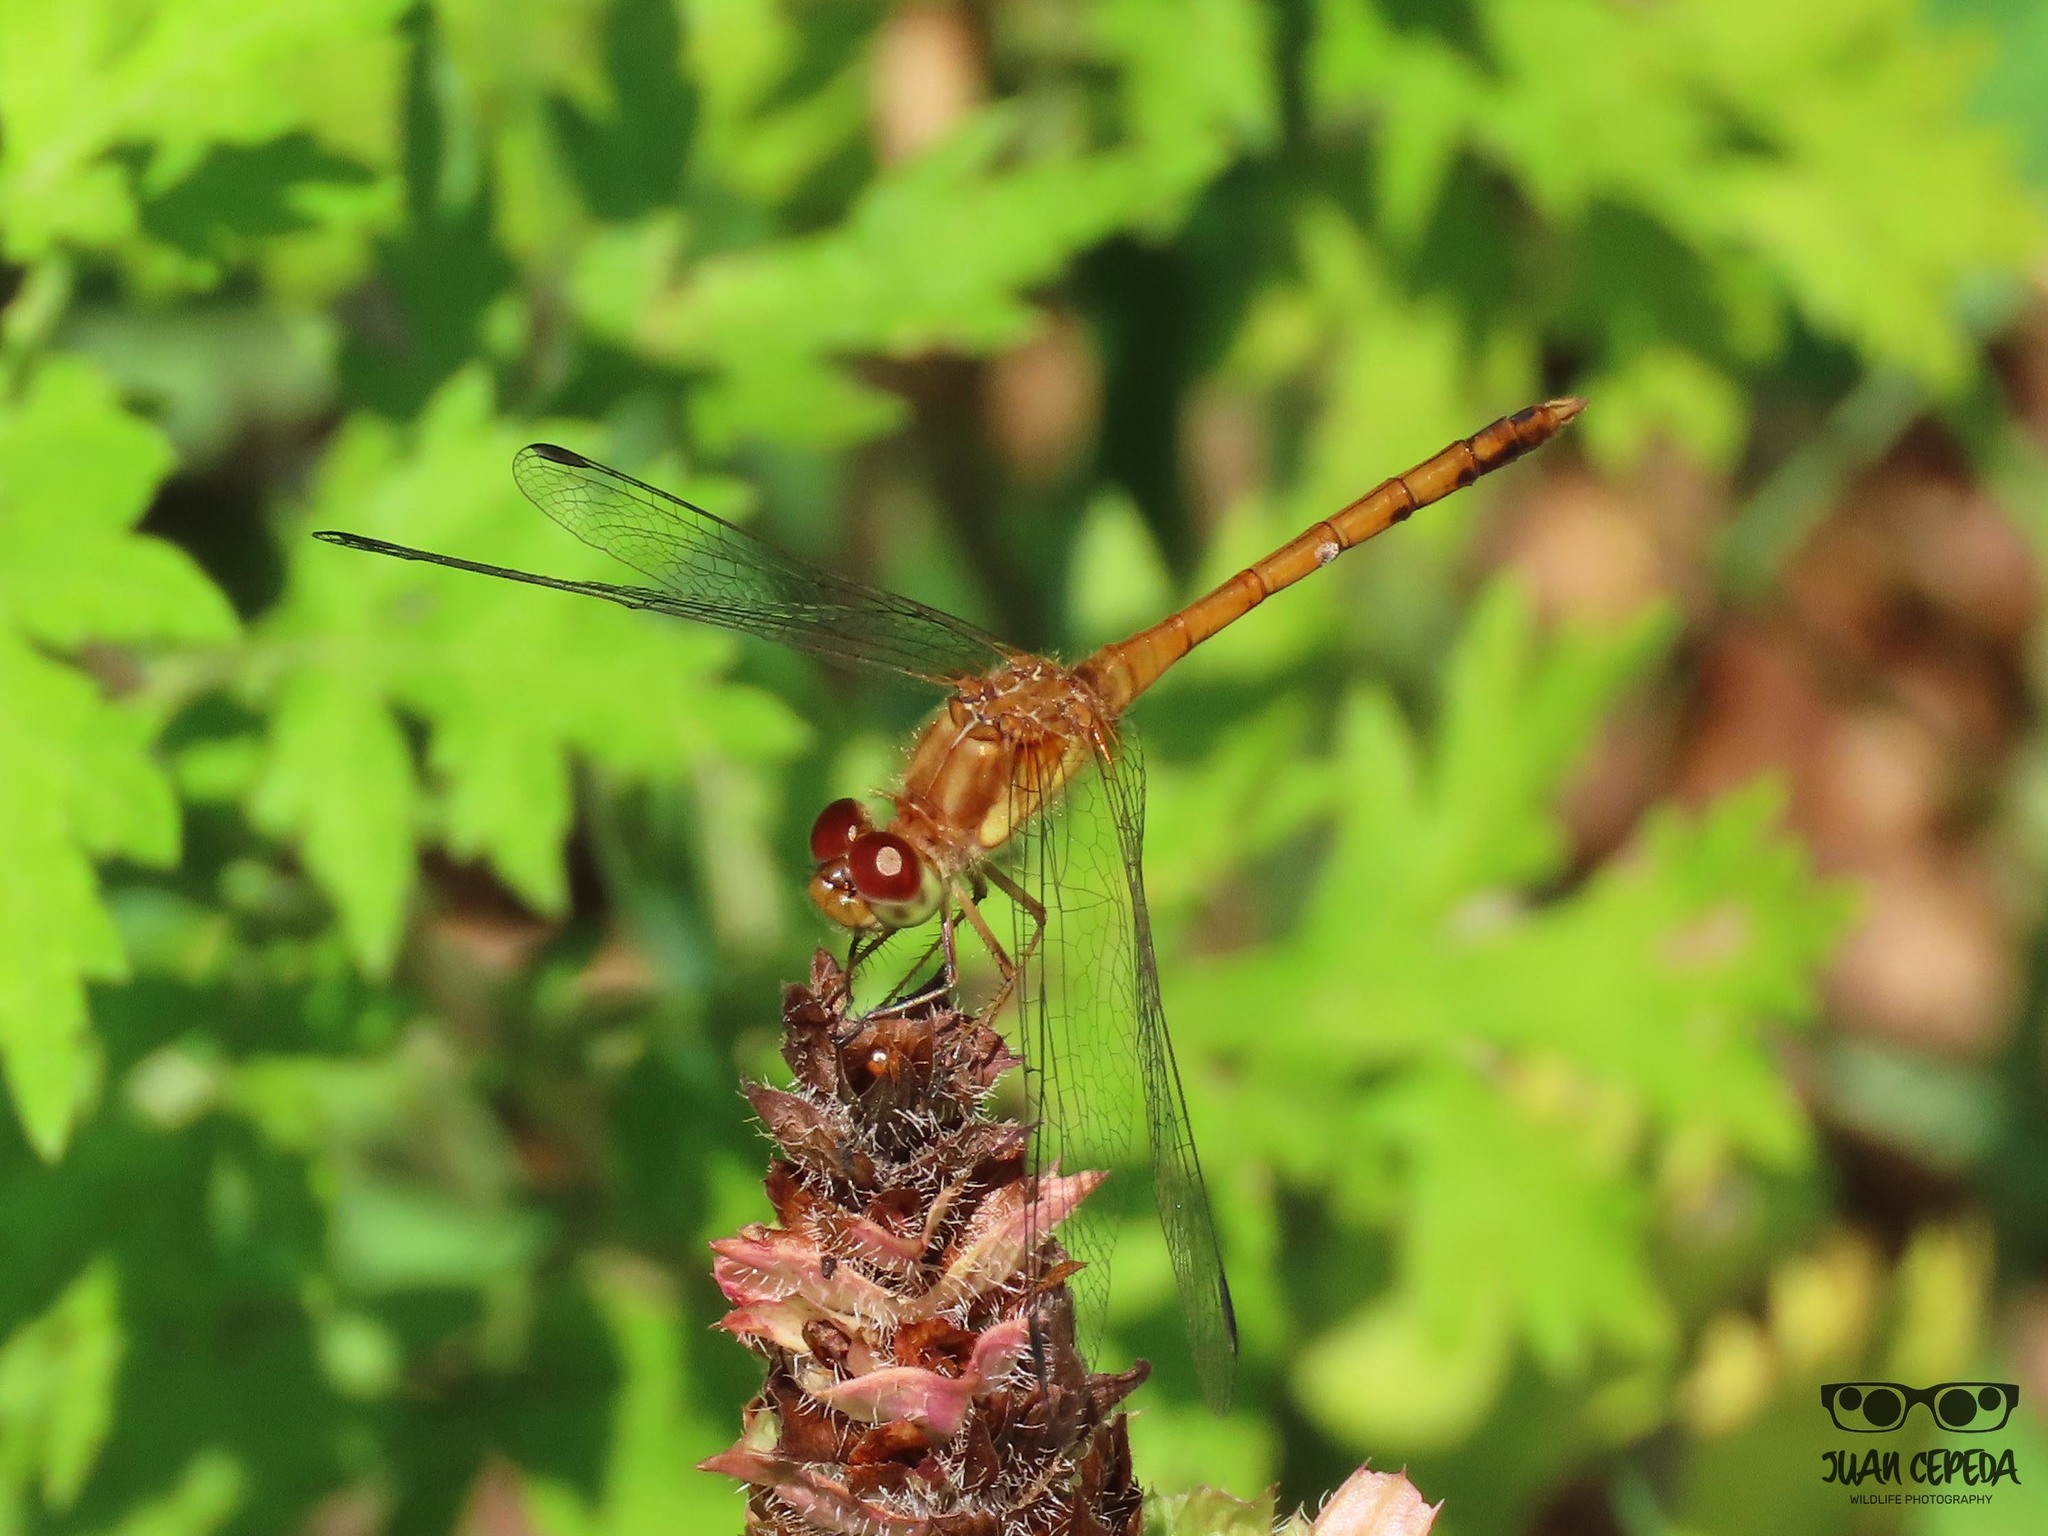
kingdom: Animalia
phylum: Arthropoda
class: Insecta
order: Odonata
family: Libellulidae
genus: Sympetrum
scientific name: Sympetrum vicinum
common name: Autumn meadowhawk
